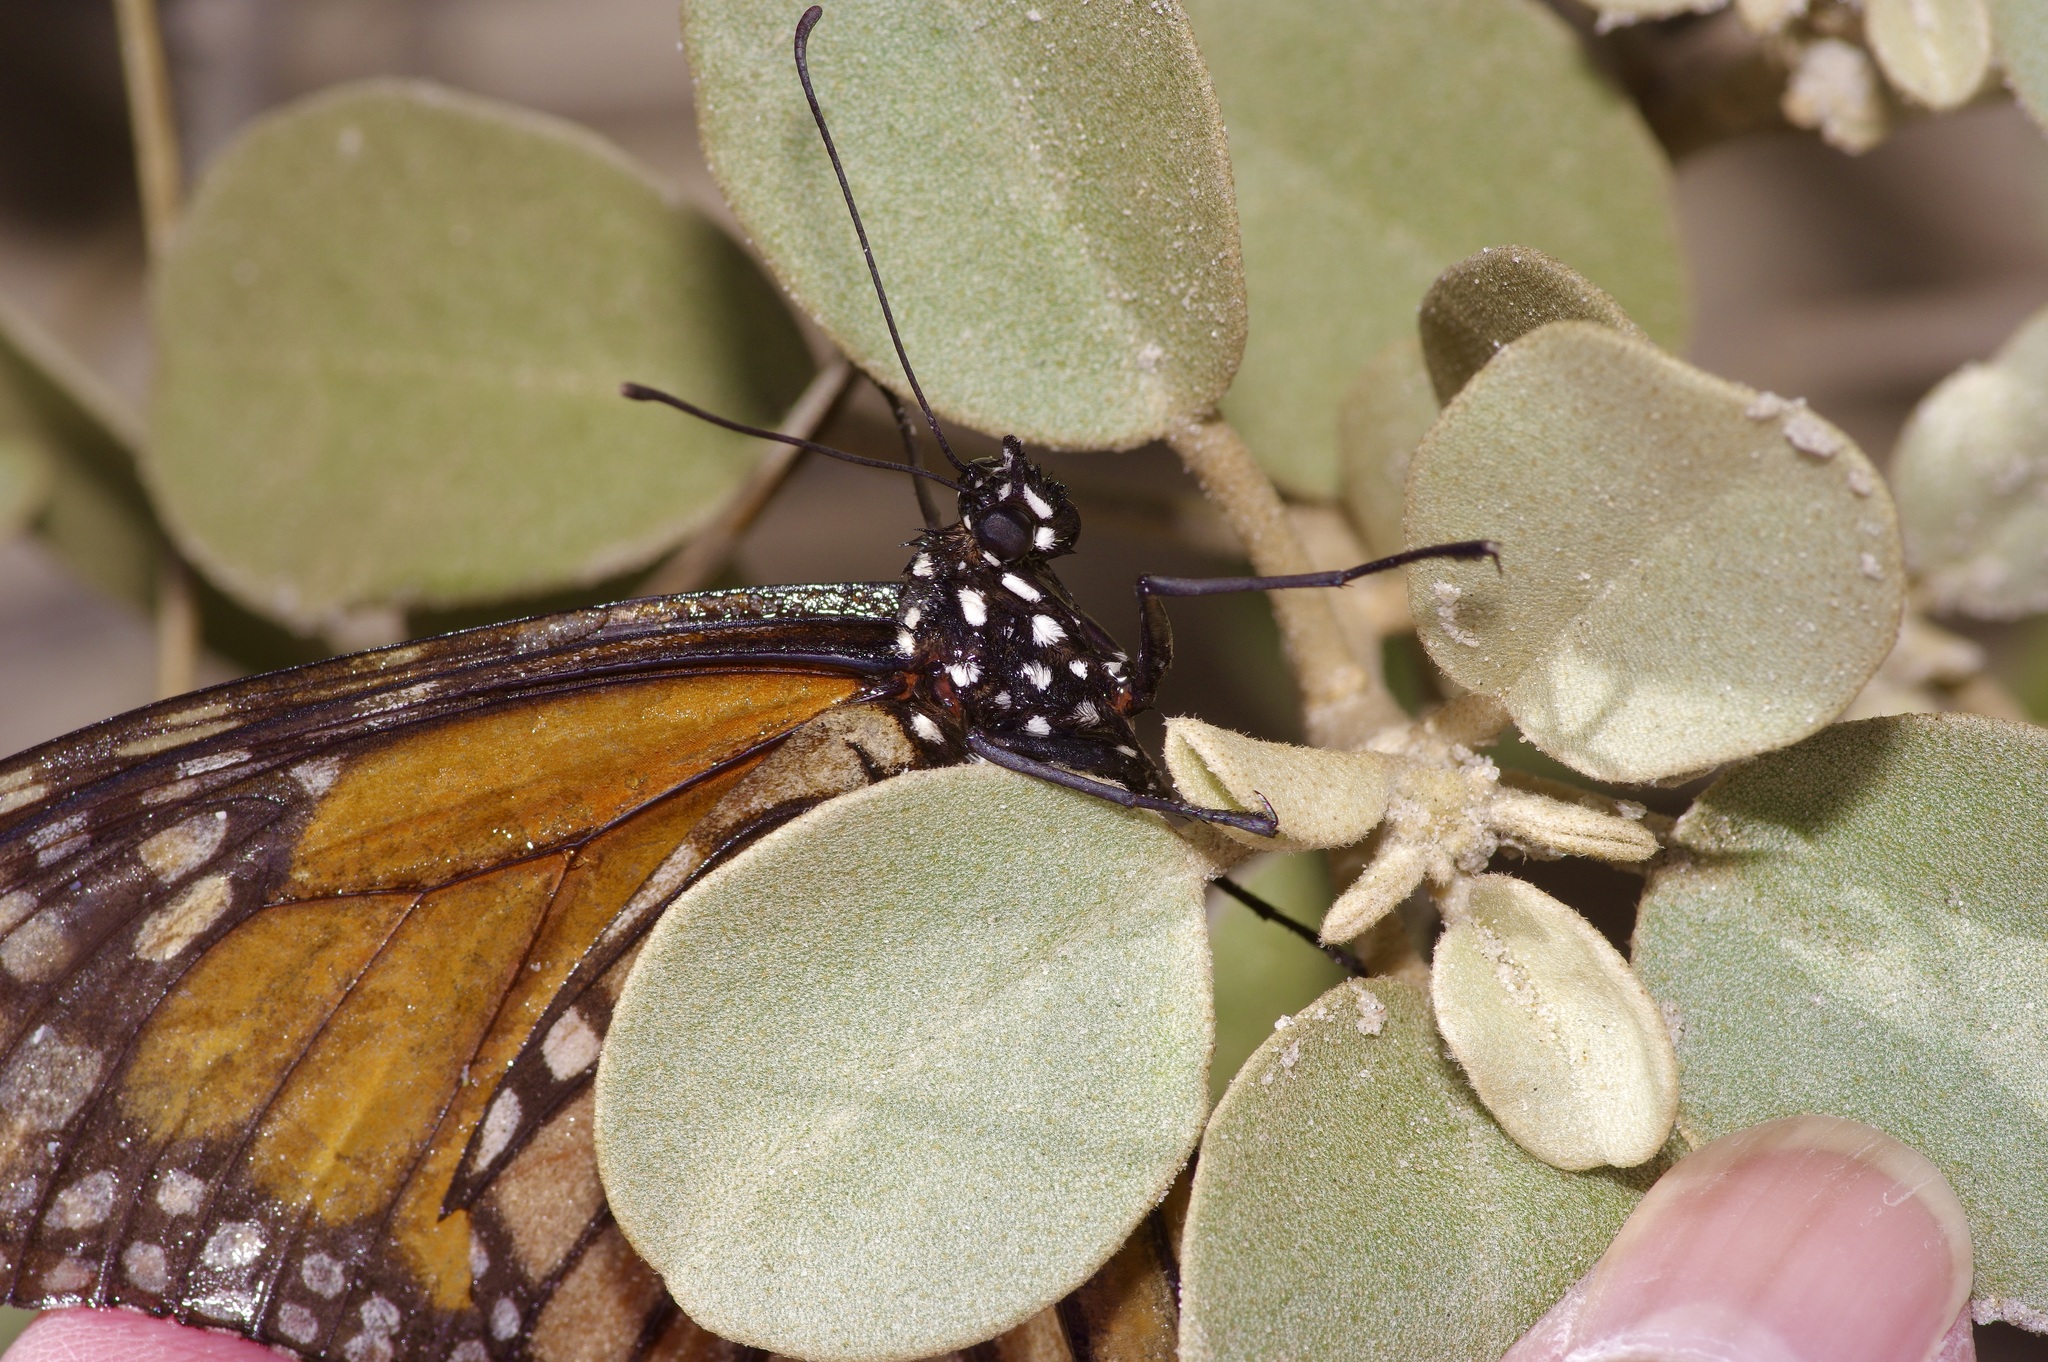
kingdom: Animalia
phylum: Arthropoda
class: Insecta
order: Lepidoptera
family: Nymphalidae
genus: Danaus
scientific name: Danaus plexippus
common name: Monarch
